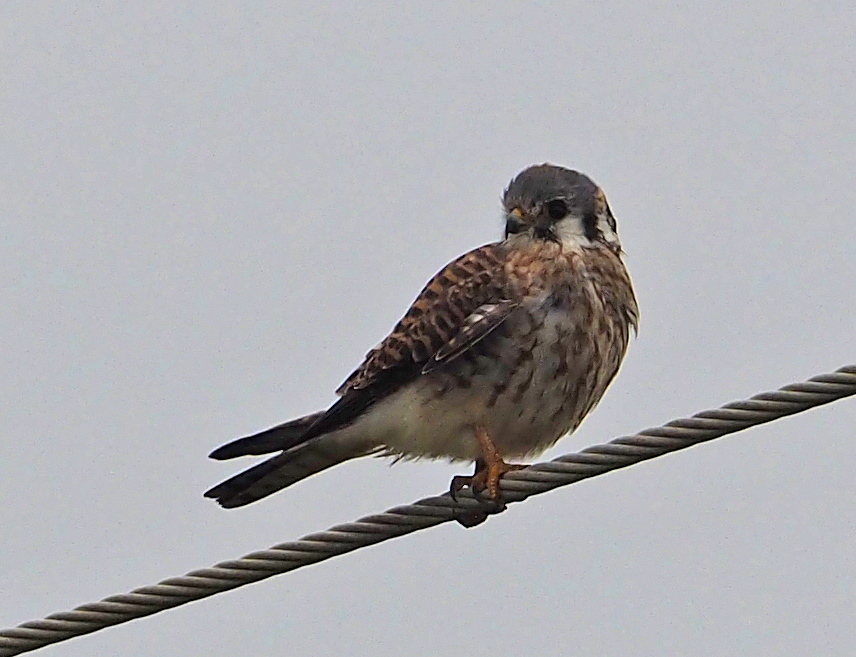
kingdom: Animalia
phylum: Chordata
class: Aves
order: Falconiformes
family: Falconidae
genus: Falco
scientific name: Falco sparverius
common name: American kestrel
